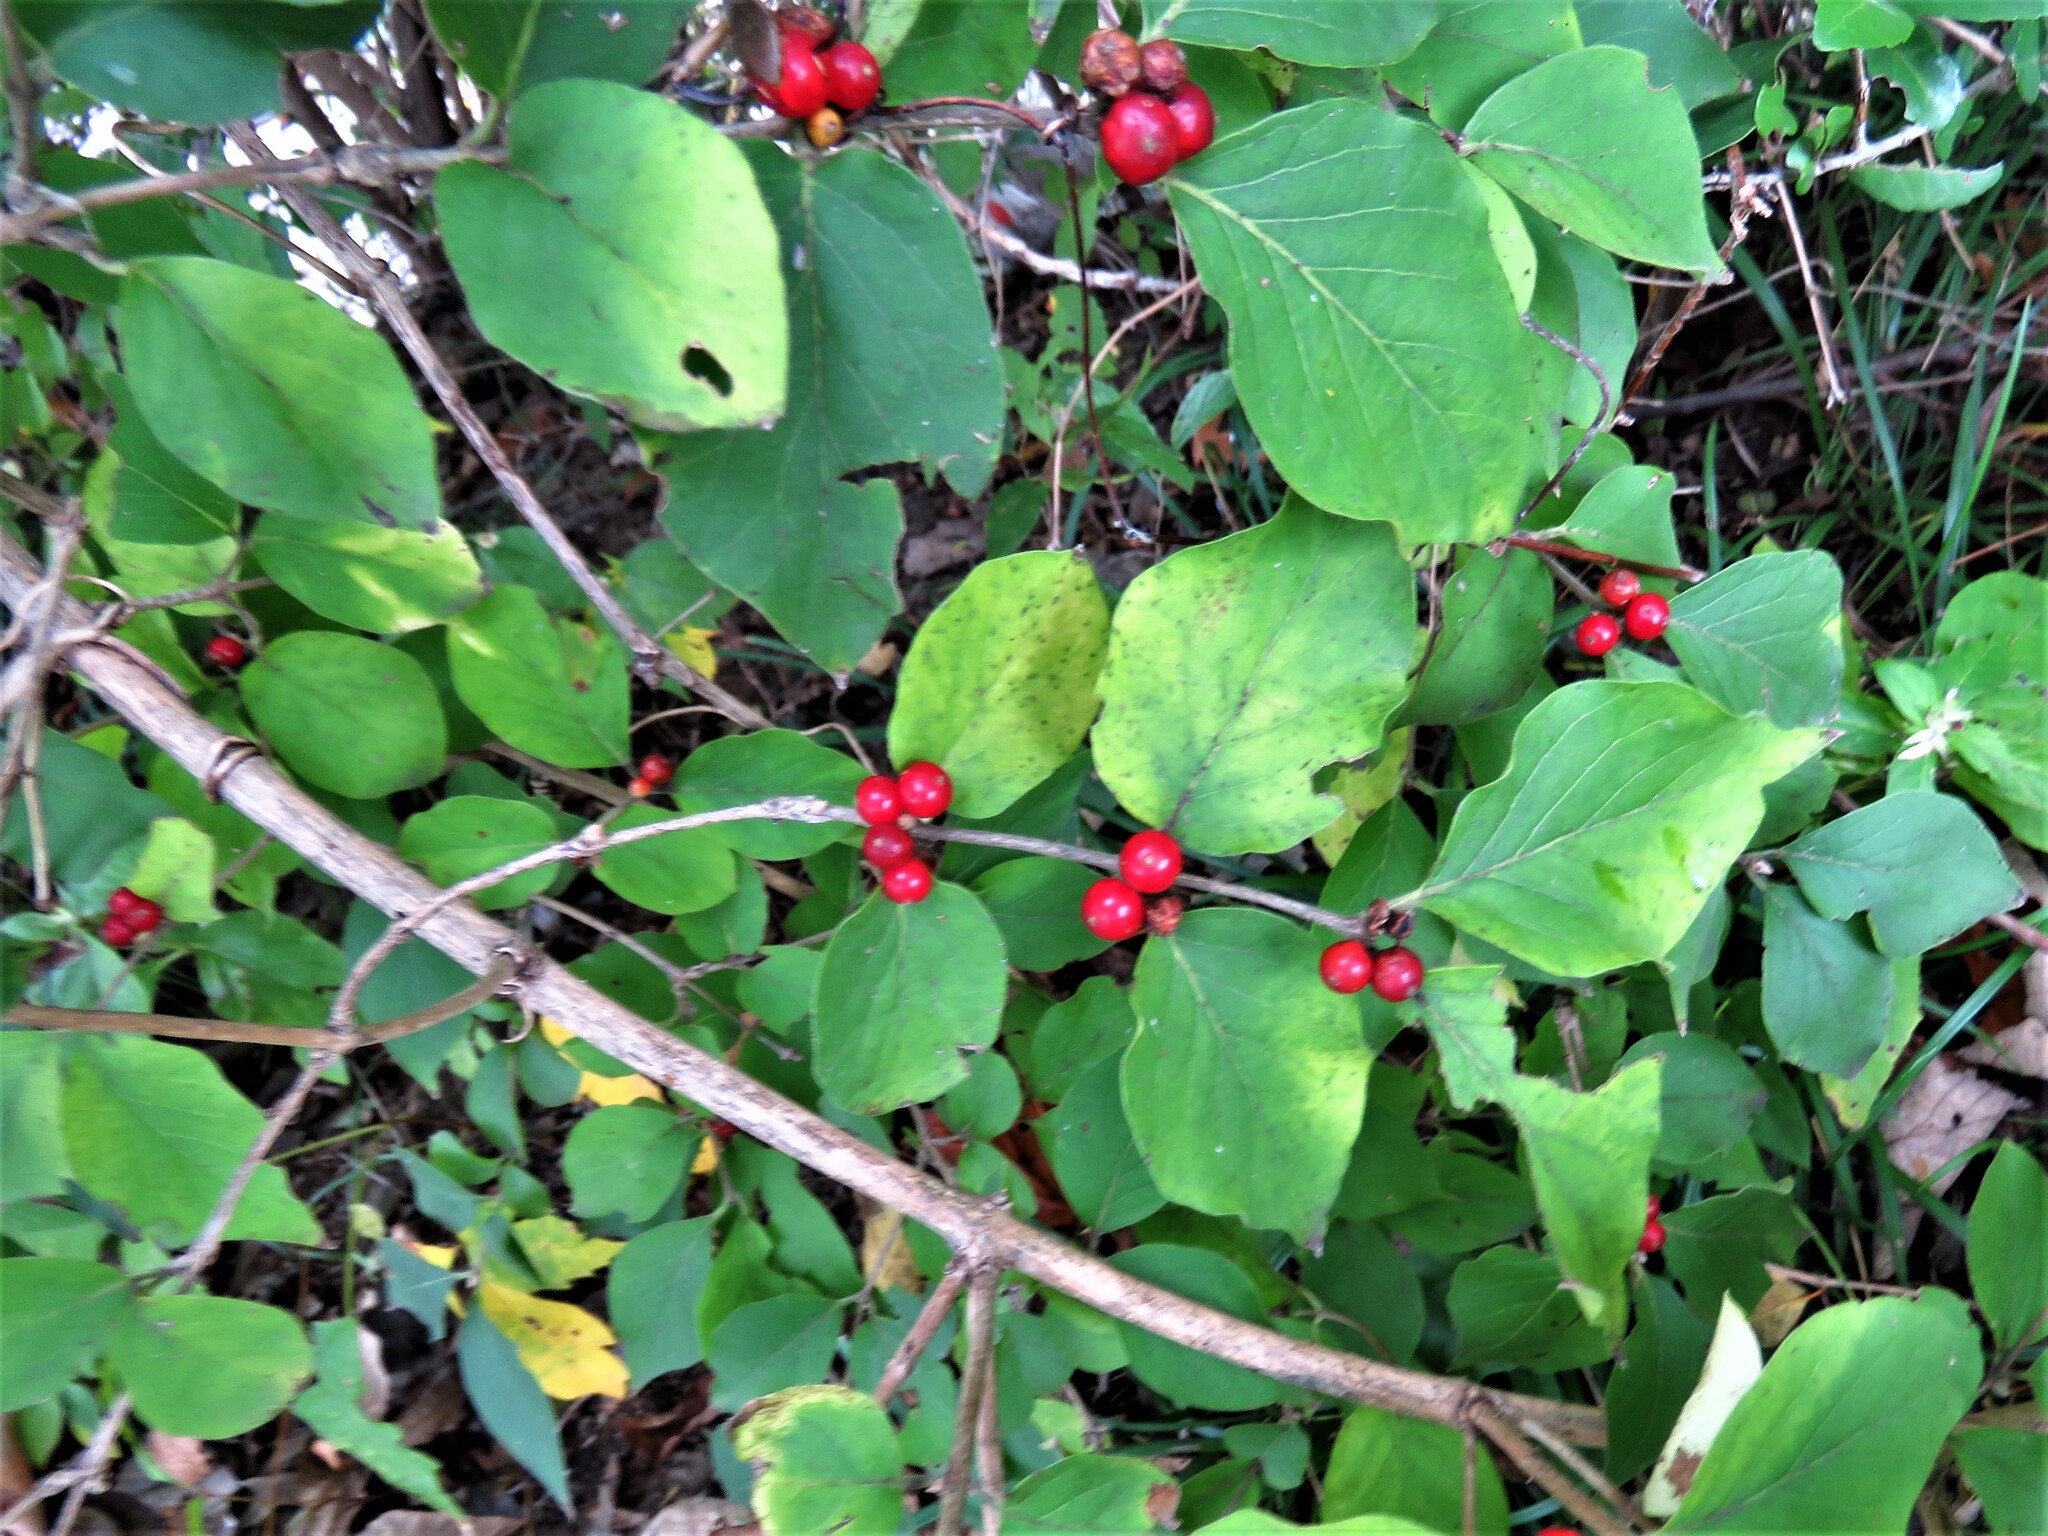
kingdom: Plantae
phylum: Tracheophyta
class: Magnoliopsida
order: Dipsacales
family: Caprifoliaceae
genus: Lonicera
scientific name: Lonicera maackii
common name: Amur honeysuckle
